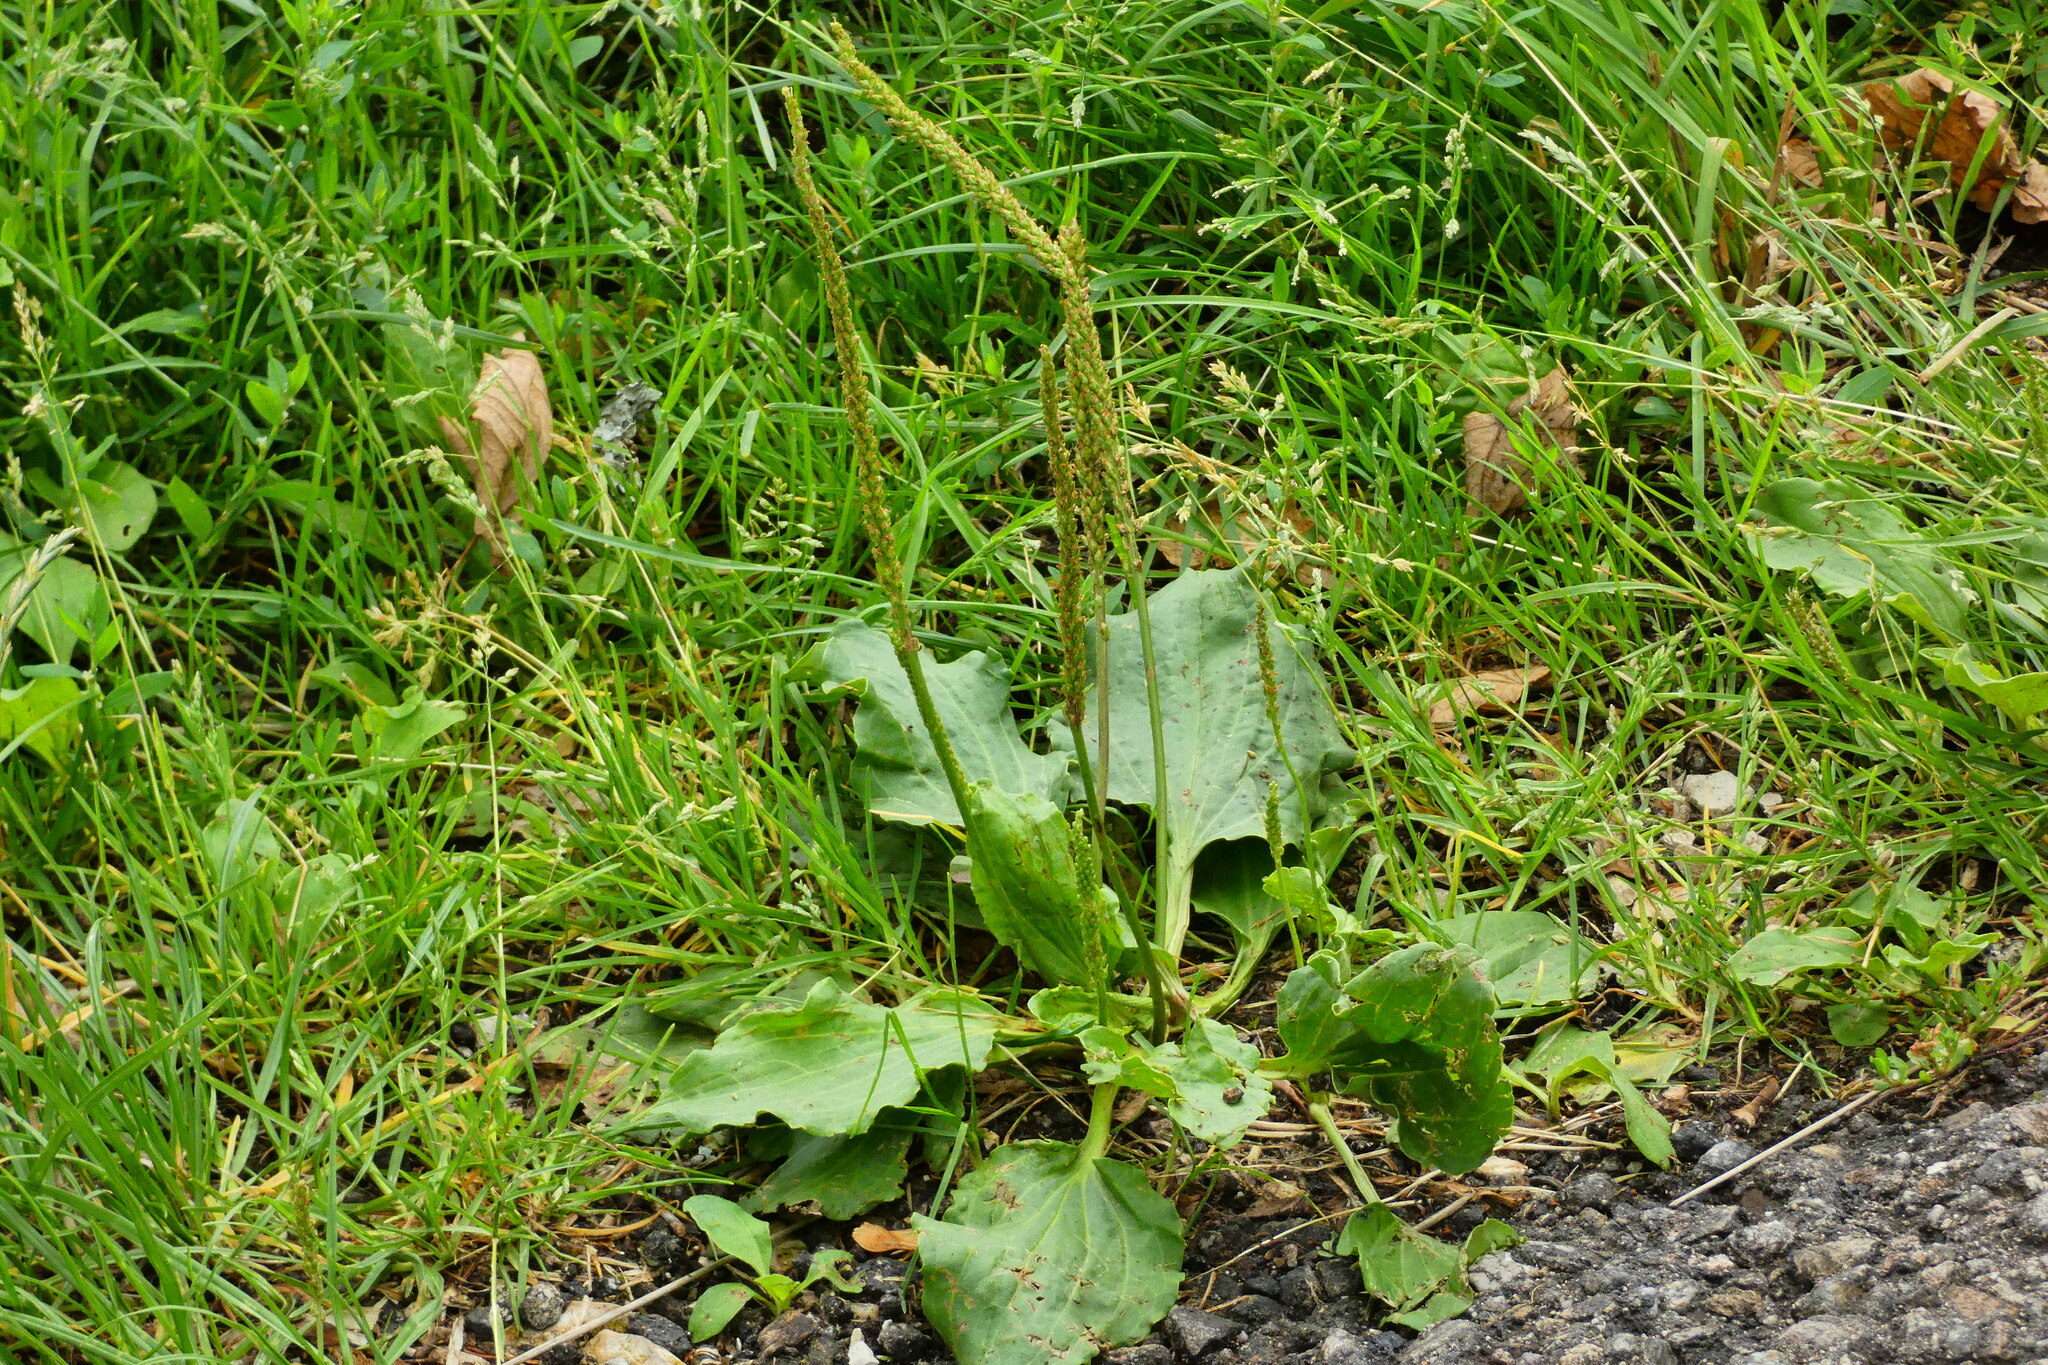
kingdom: Plantae
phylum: Tracheophyta
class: Magnoliopsida
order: Lamiales
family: Plantaginaceae
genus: Plantago
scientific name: Plantago major
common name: Common plantain
